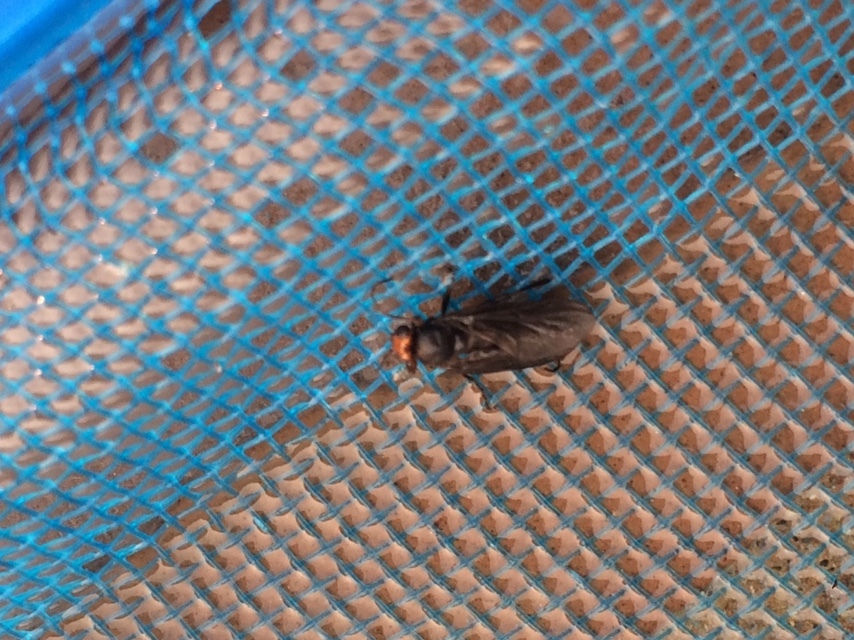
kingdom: Animalia
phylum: Arthropoda
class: Insecta
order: Diptera
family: Stratiomyidae
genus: Inopus
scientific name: Inopus rubriceps
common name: Soldier fly
